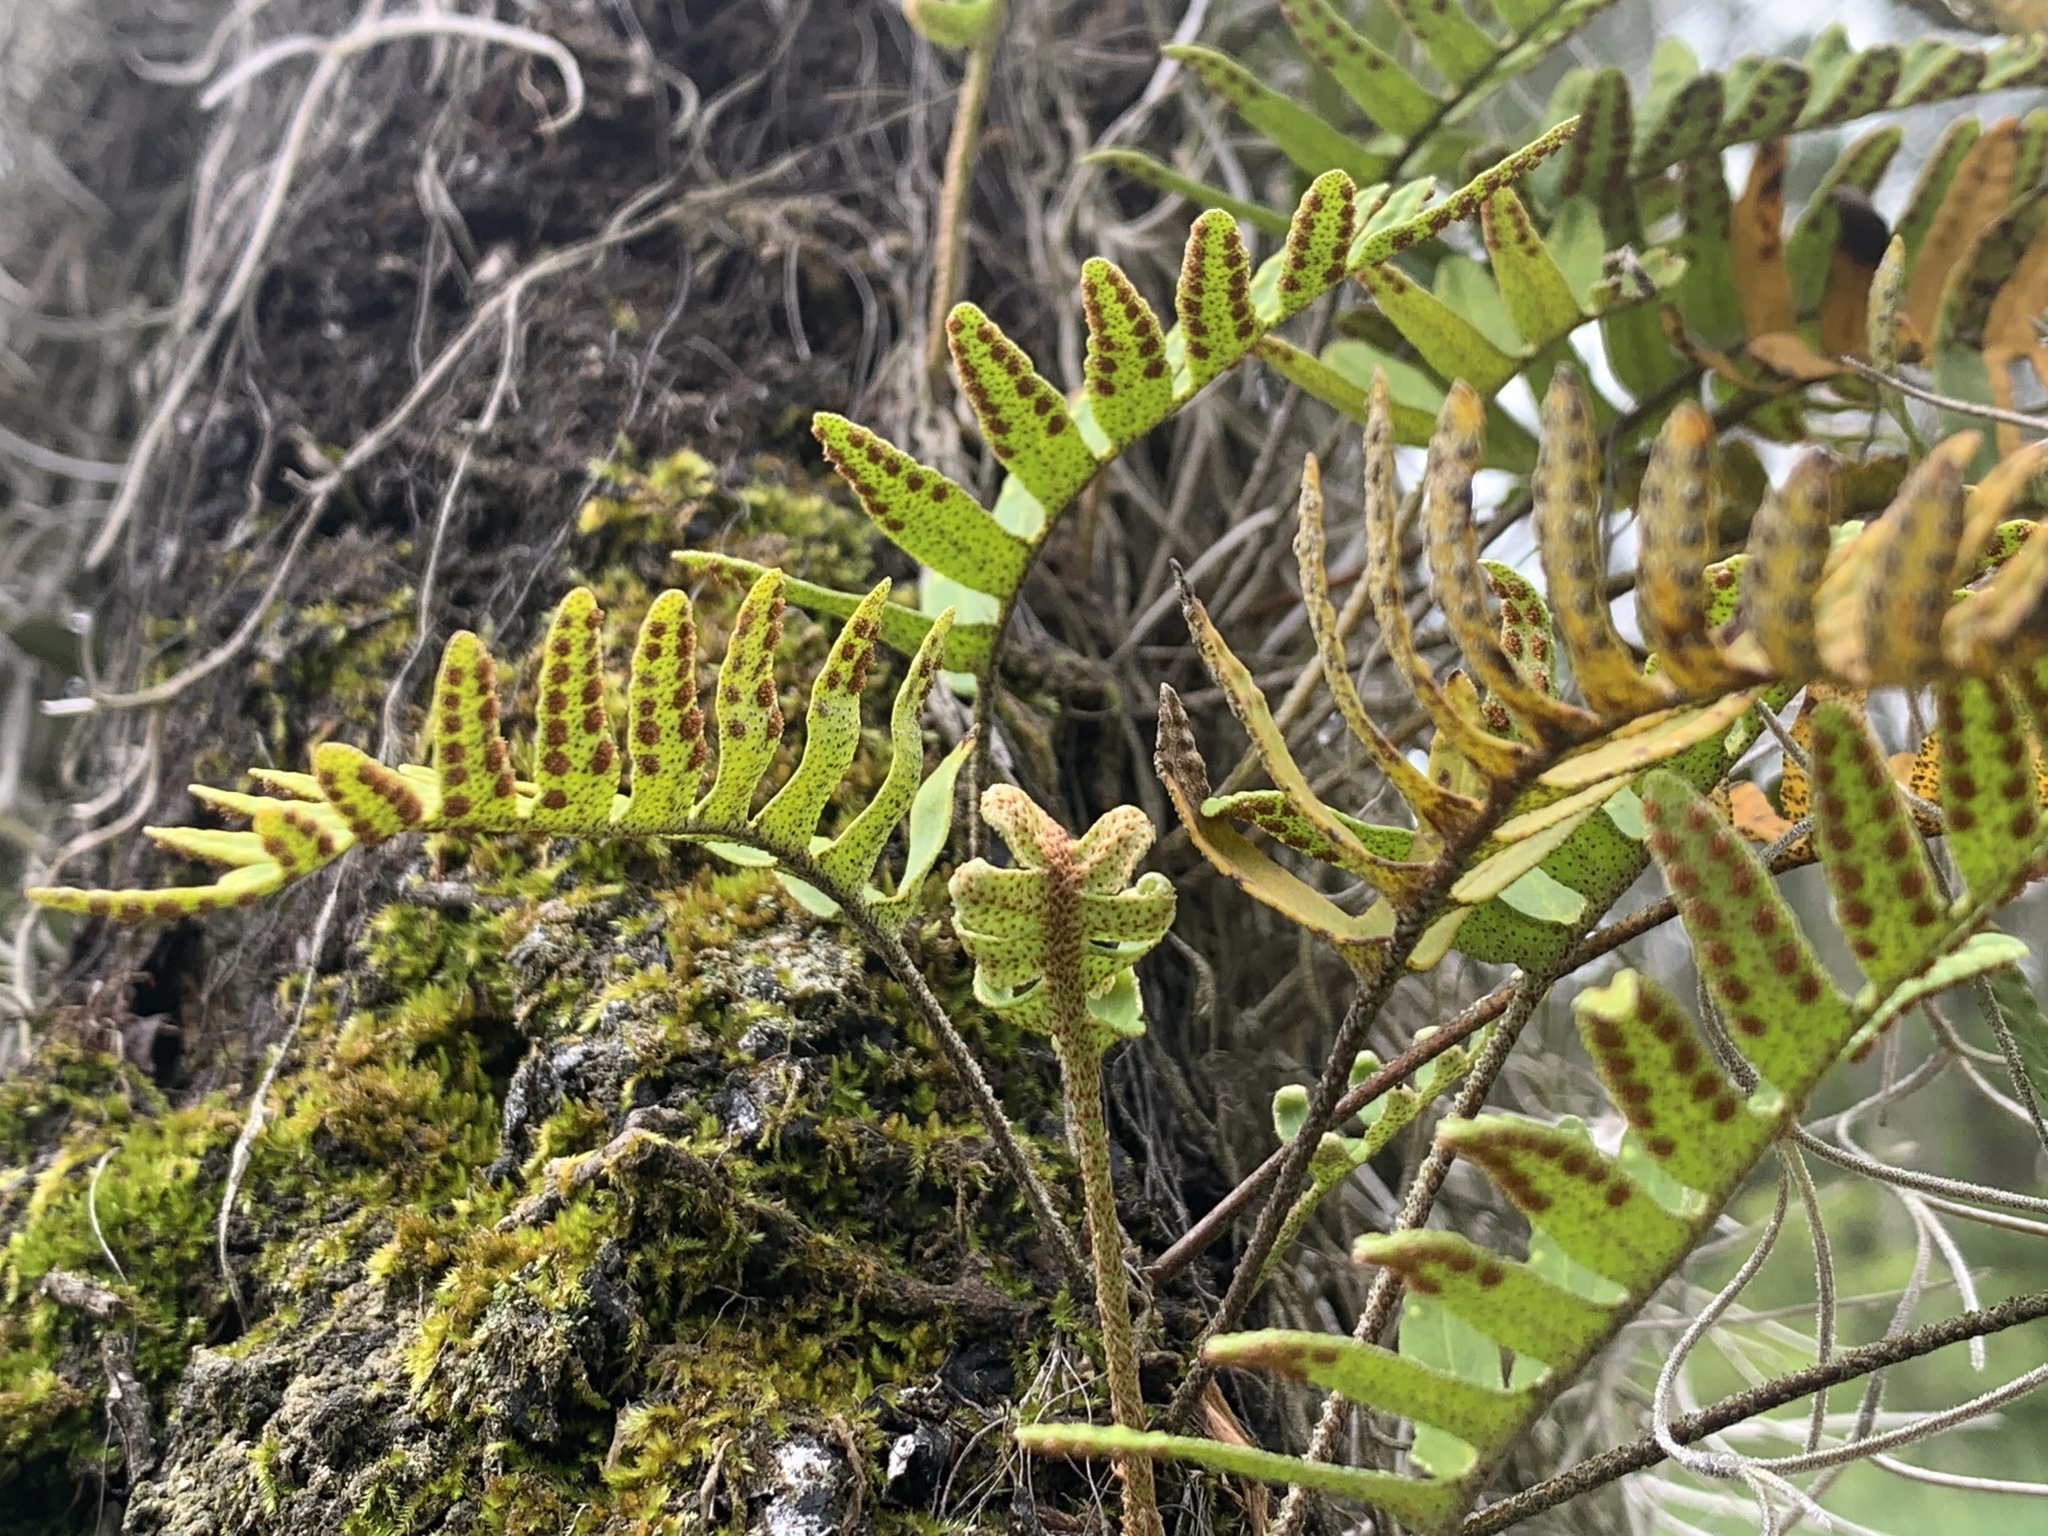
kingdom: Plantae
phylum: Tracheophyta
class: Polypodiopsida
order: Polypodiales
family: Polypodiaceae
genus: Pleopeltis
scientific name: Pleopeltis michauxiana
